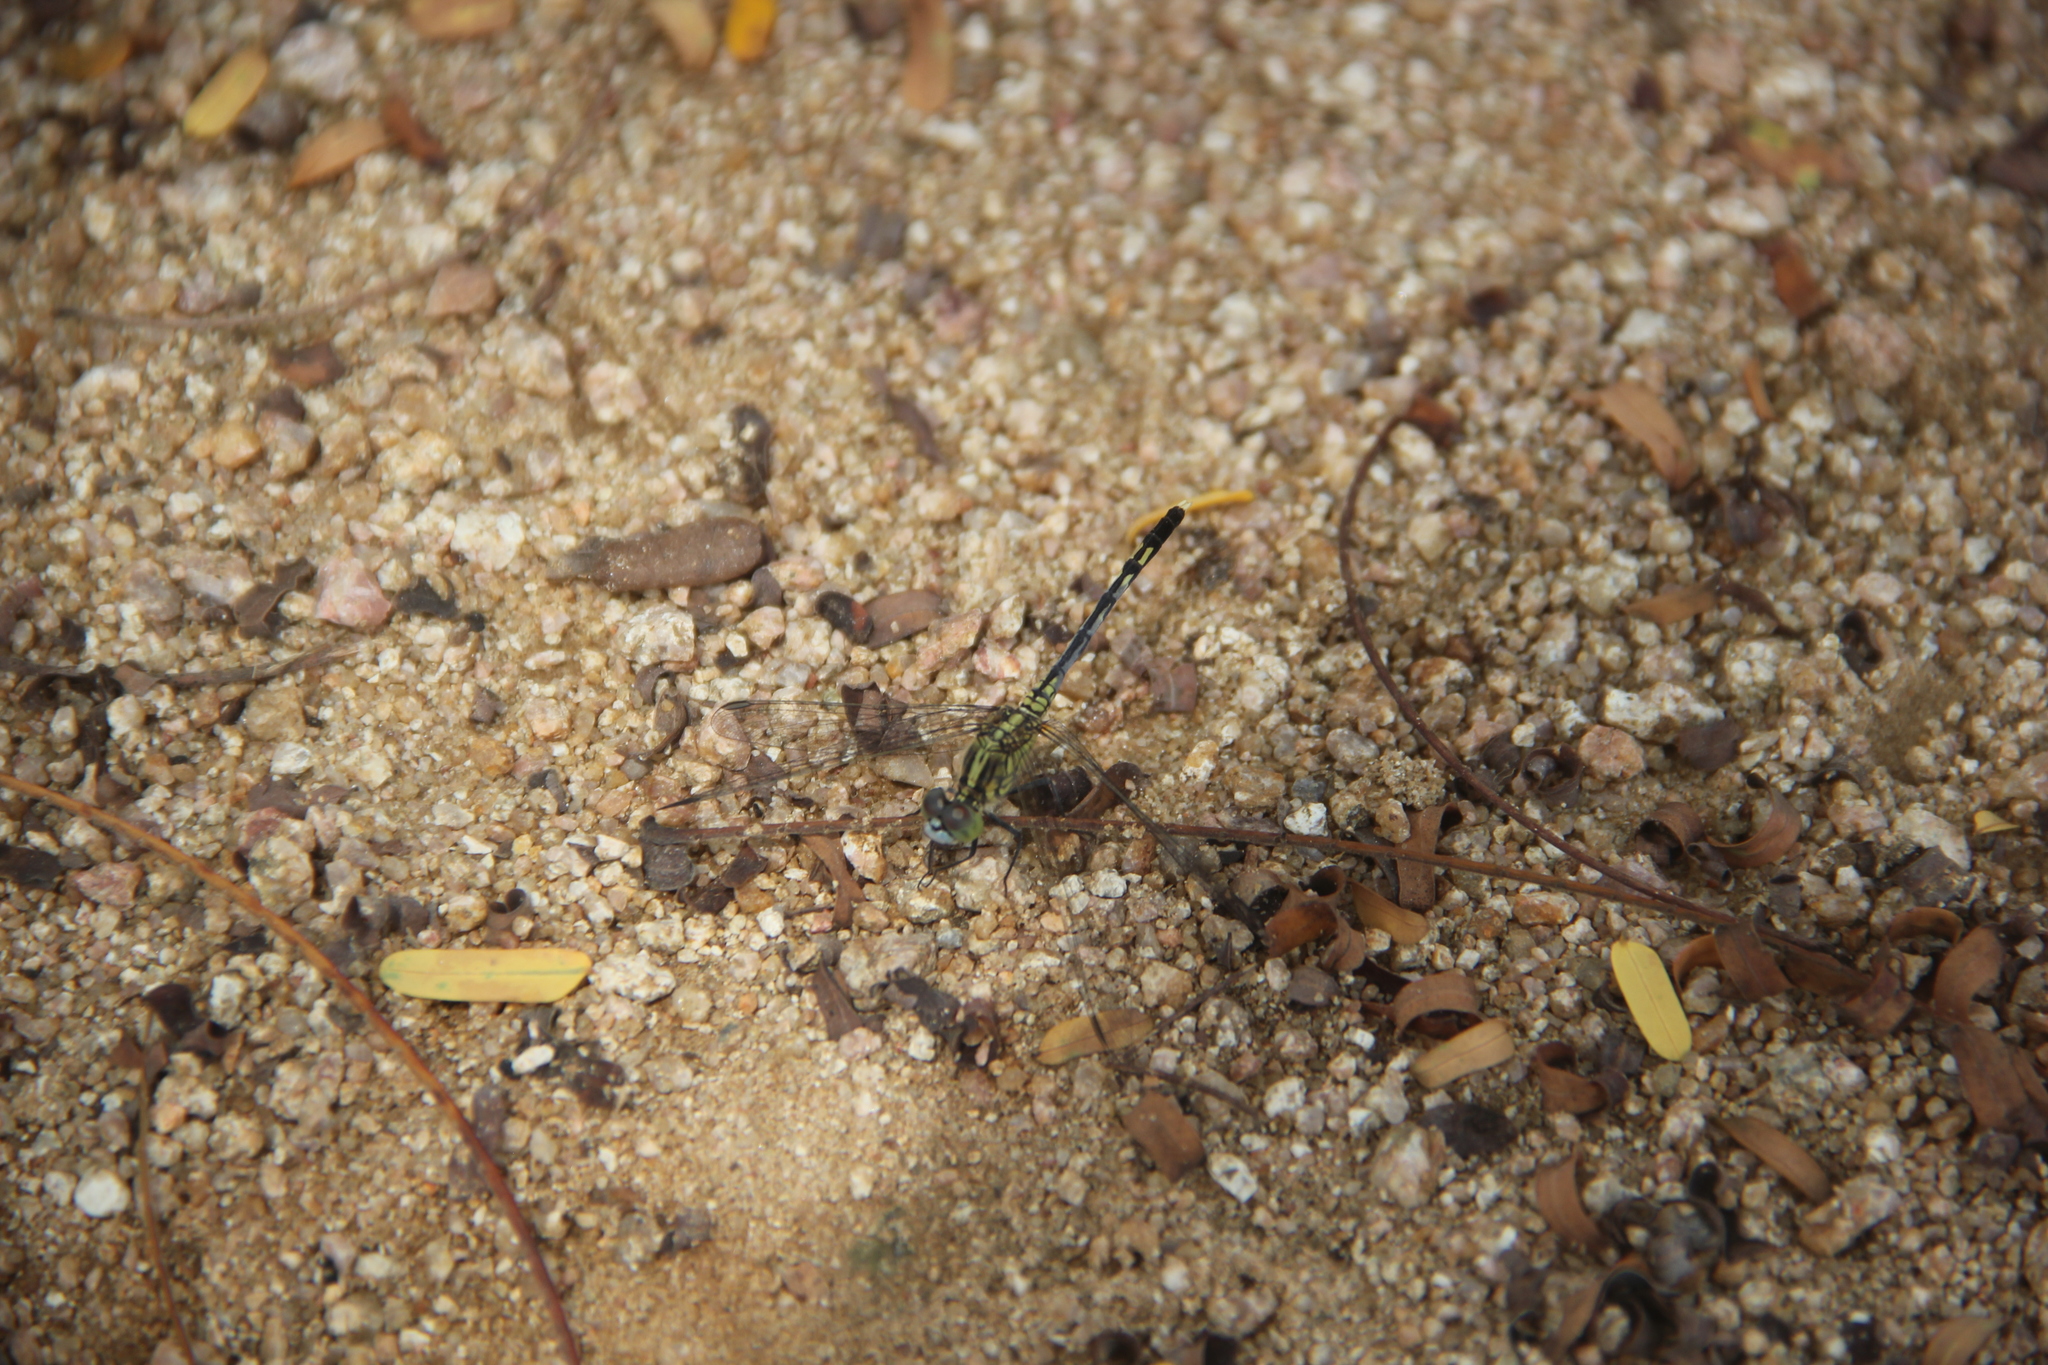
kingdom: Animalia
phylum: Arthropoda
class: Insecta
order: Odonata
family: Libellulidae
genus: Diplacodes
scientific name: Diplacodes trivialis
